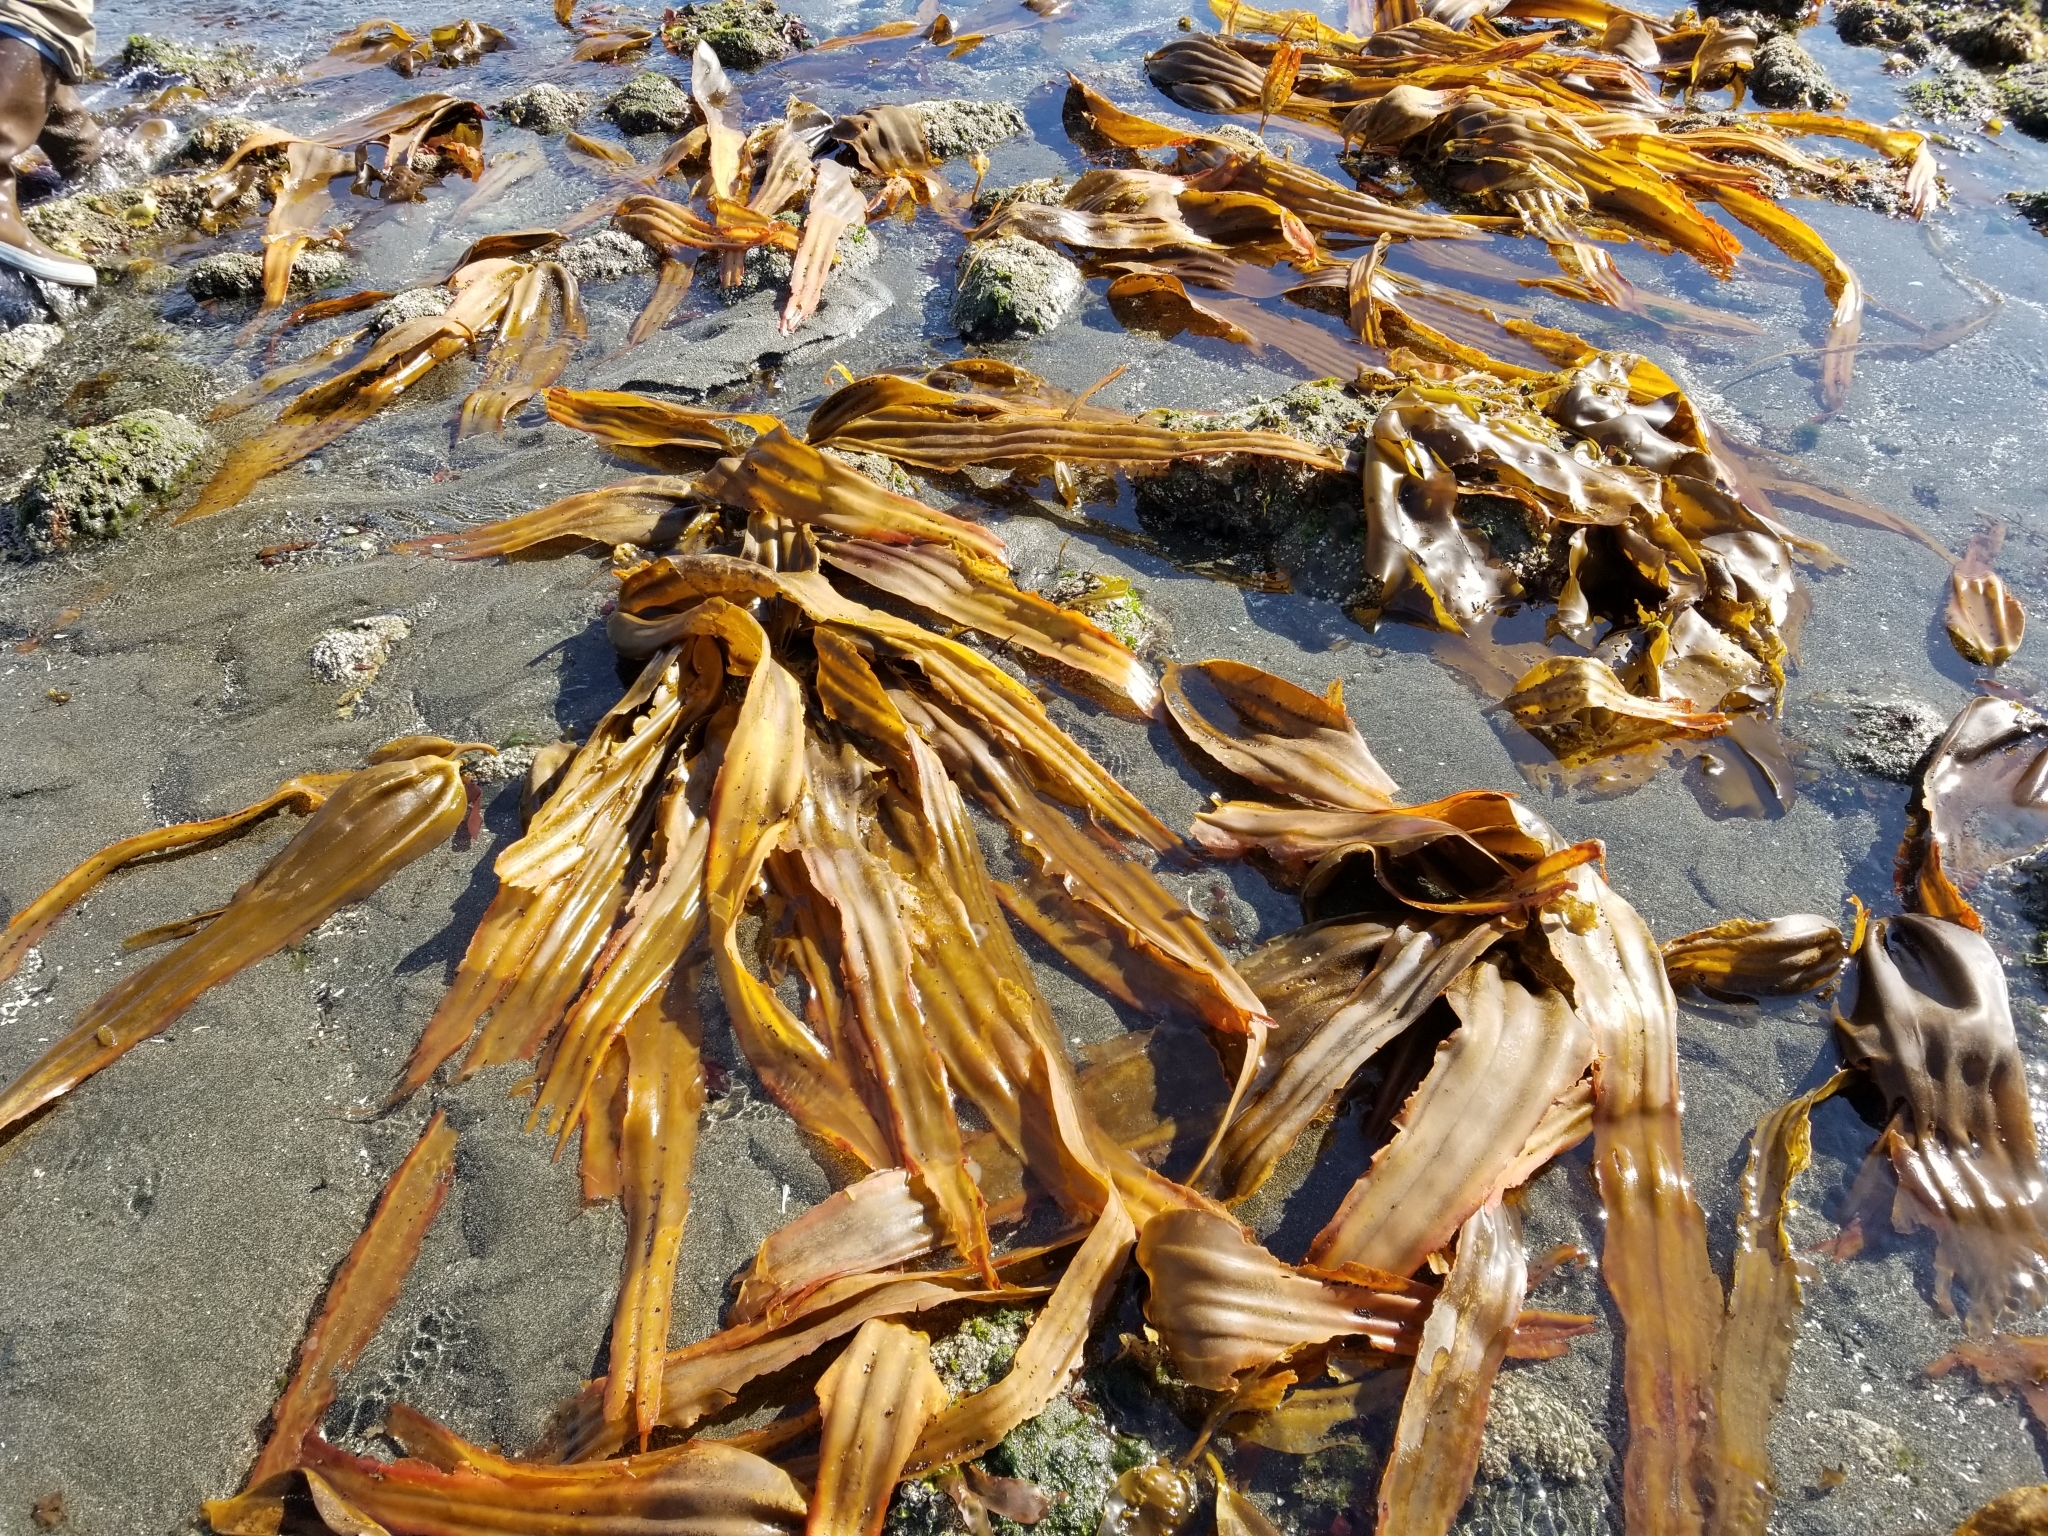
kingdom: Chromista
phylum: Ochrophyta
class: Phaeophyceae
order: Laminariales
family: Laminariaceae
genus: Cymathaere
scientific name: Cymathaere triplicata
